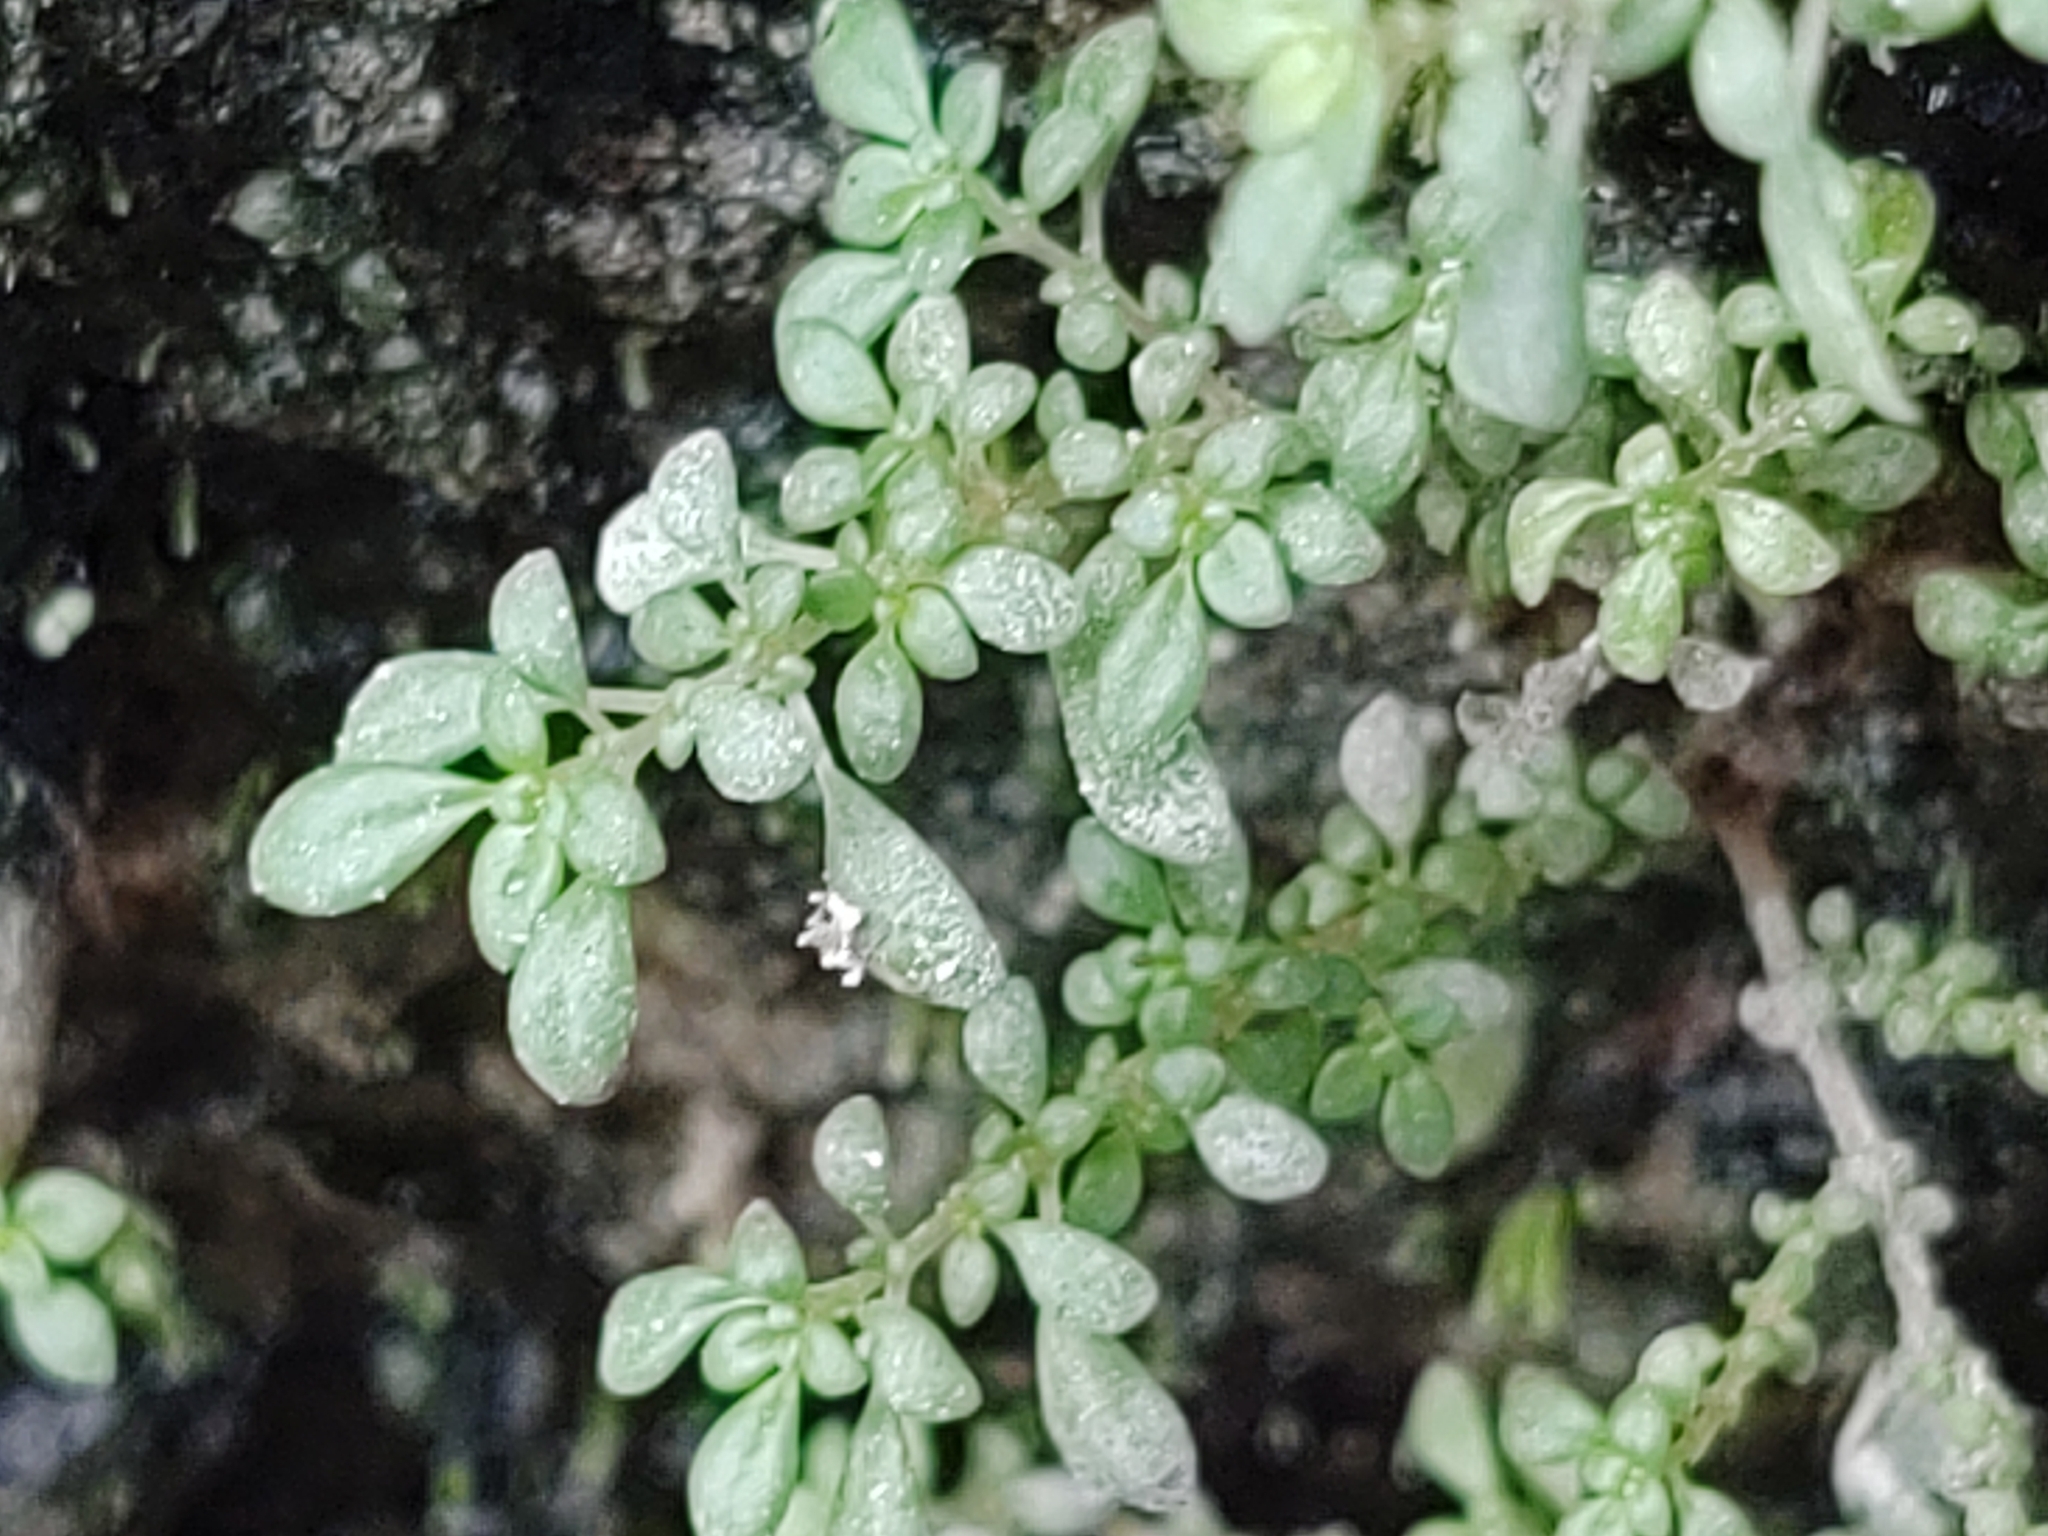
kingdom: Plantae
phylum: Tracheophyta
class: Magnoliopsida
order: Rosales
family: Urticaceae
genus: Pilea
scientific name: Pilea microphylla
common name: Artillery-plant
